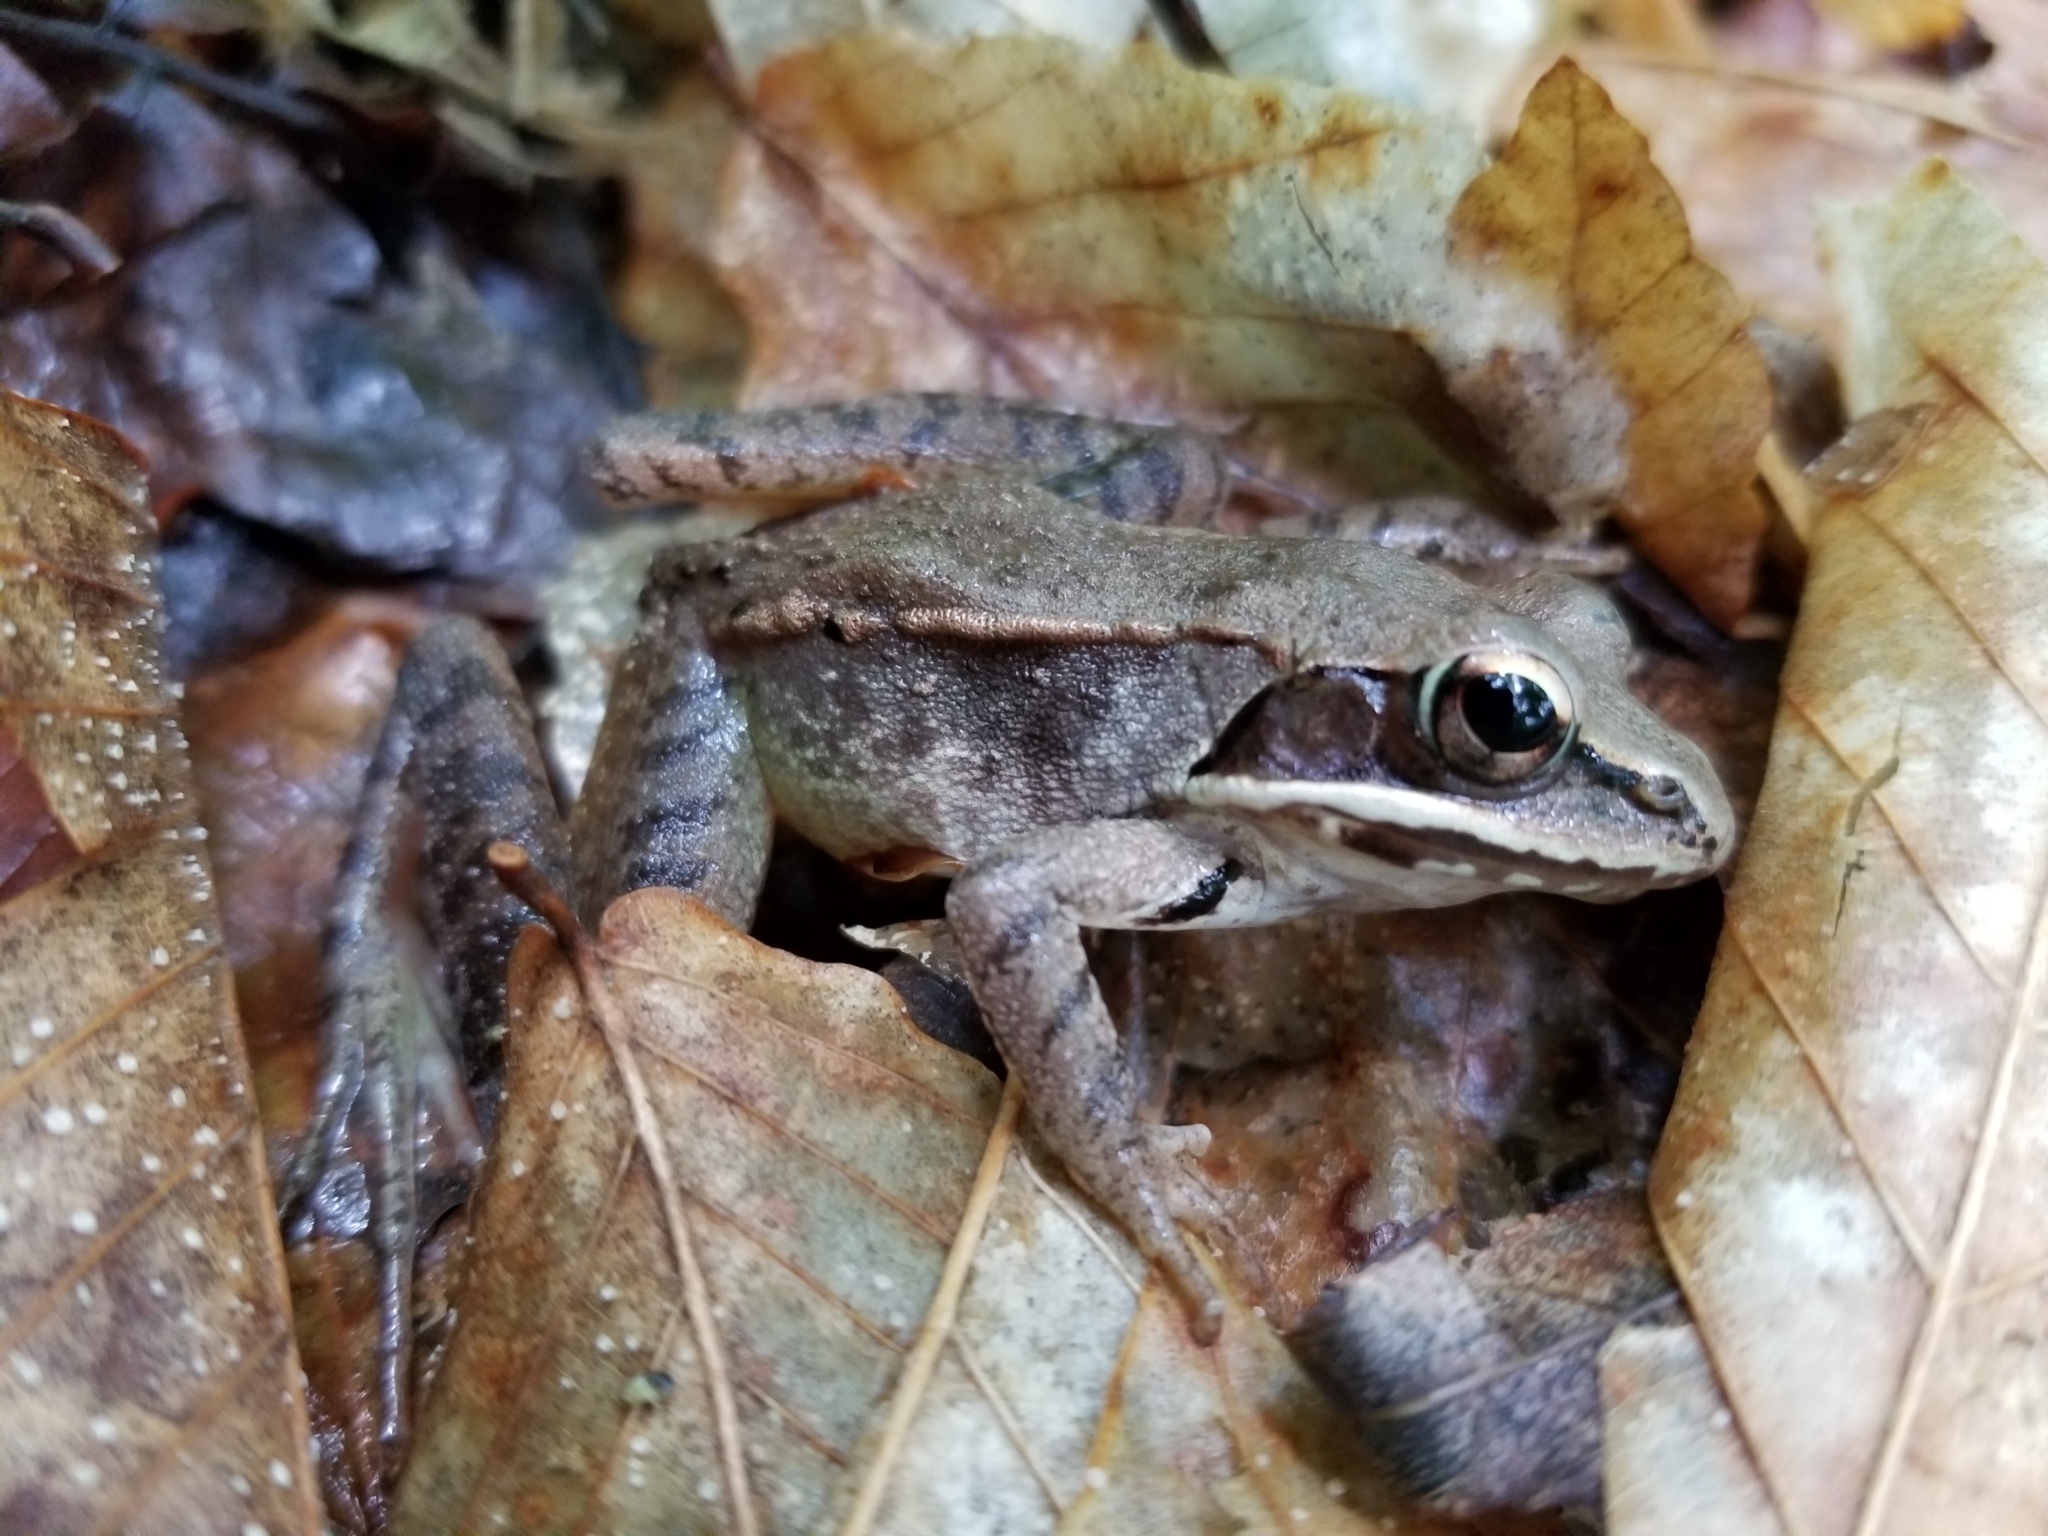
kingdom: Animalia
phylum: Chordata
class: Amphibia
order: Anura
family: Ranidae
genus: Lithobates
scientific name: Lithobates sylvaticus
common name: Wood frog
